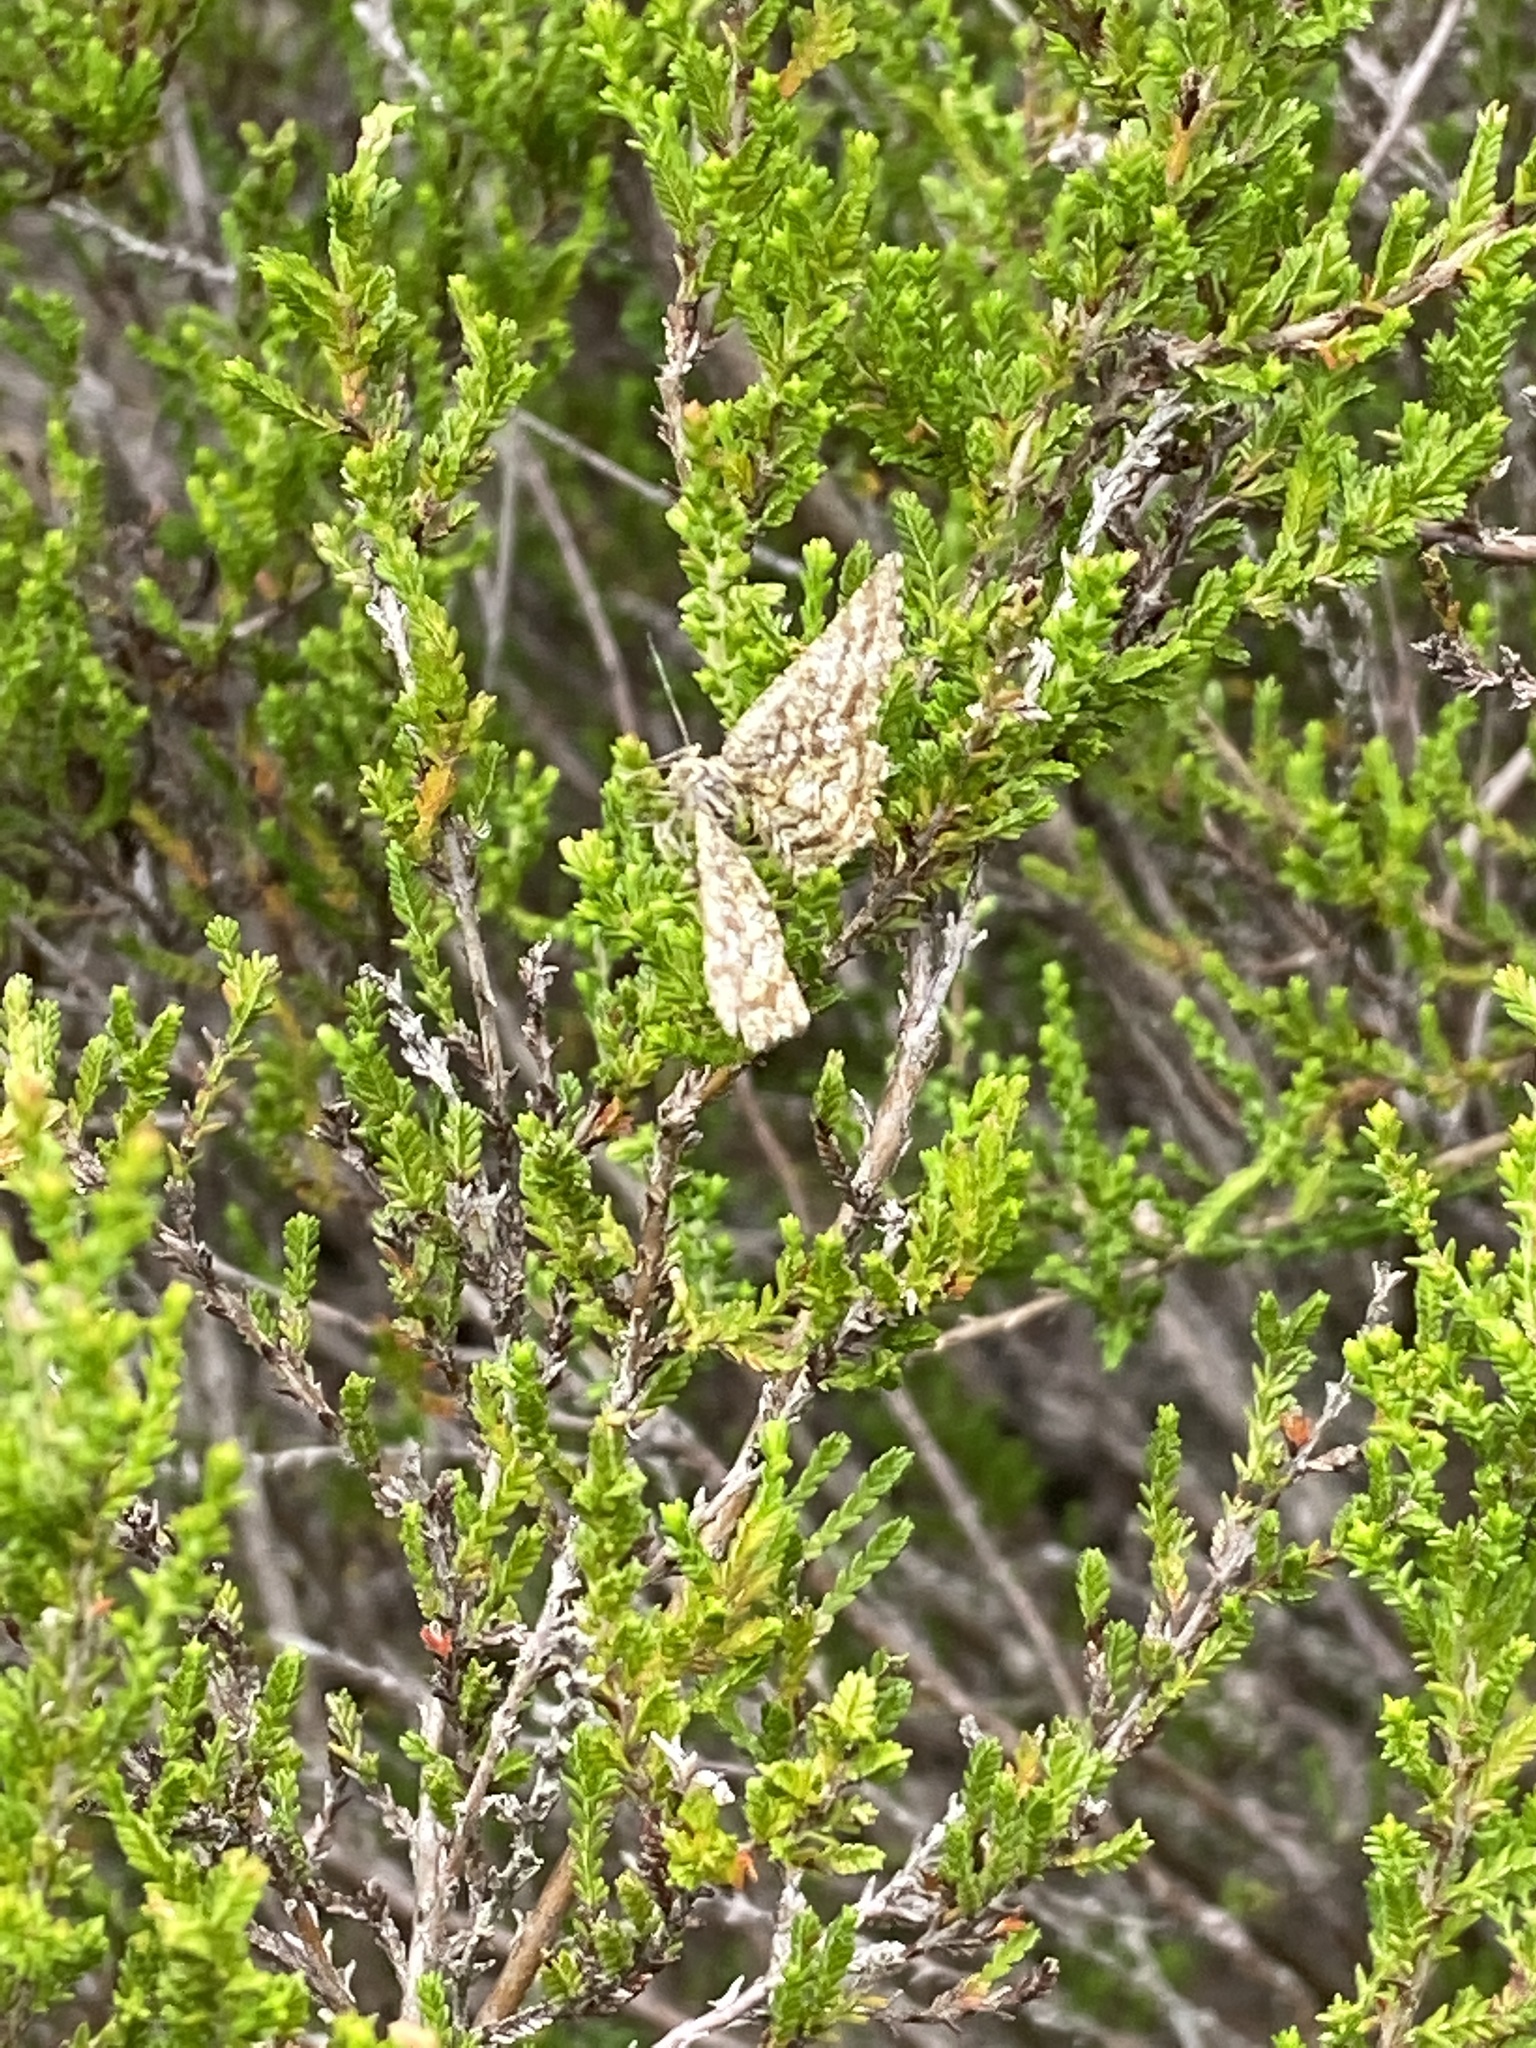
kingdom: Animalia
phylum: Arthropoda
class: Insecta
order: Lepidoptera
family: Geometridae
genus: Ematurga
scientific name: Ematurga atomaria
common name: Common heath
